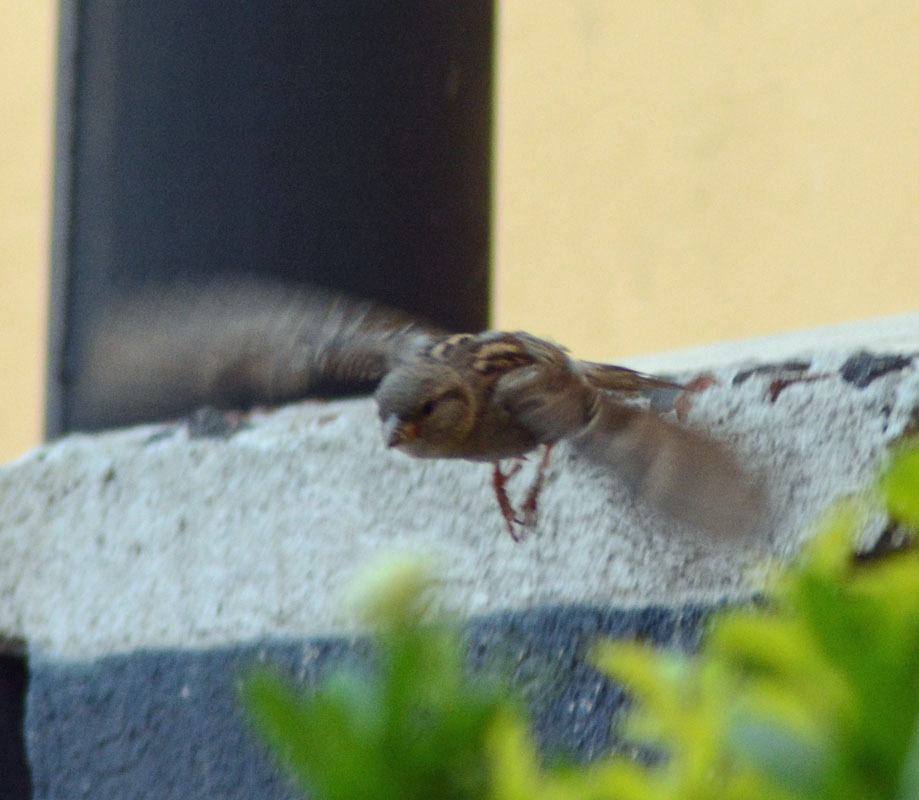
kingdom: Animalia
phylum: Chordata
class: Aves
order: Passeriformes
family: Passeridae
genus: Passer
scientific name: Passer domesticus
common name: House sparrow
